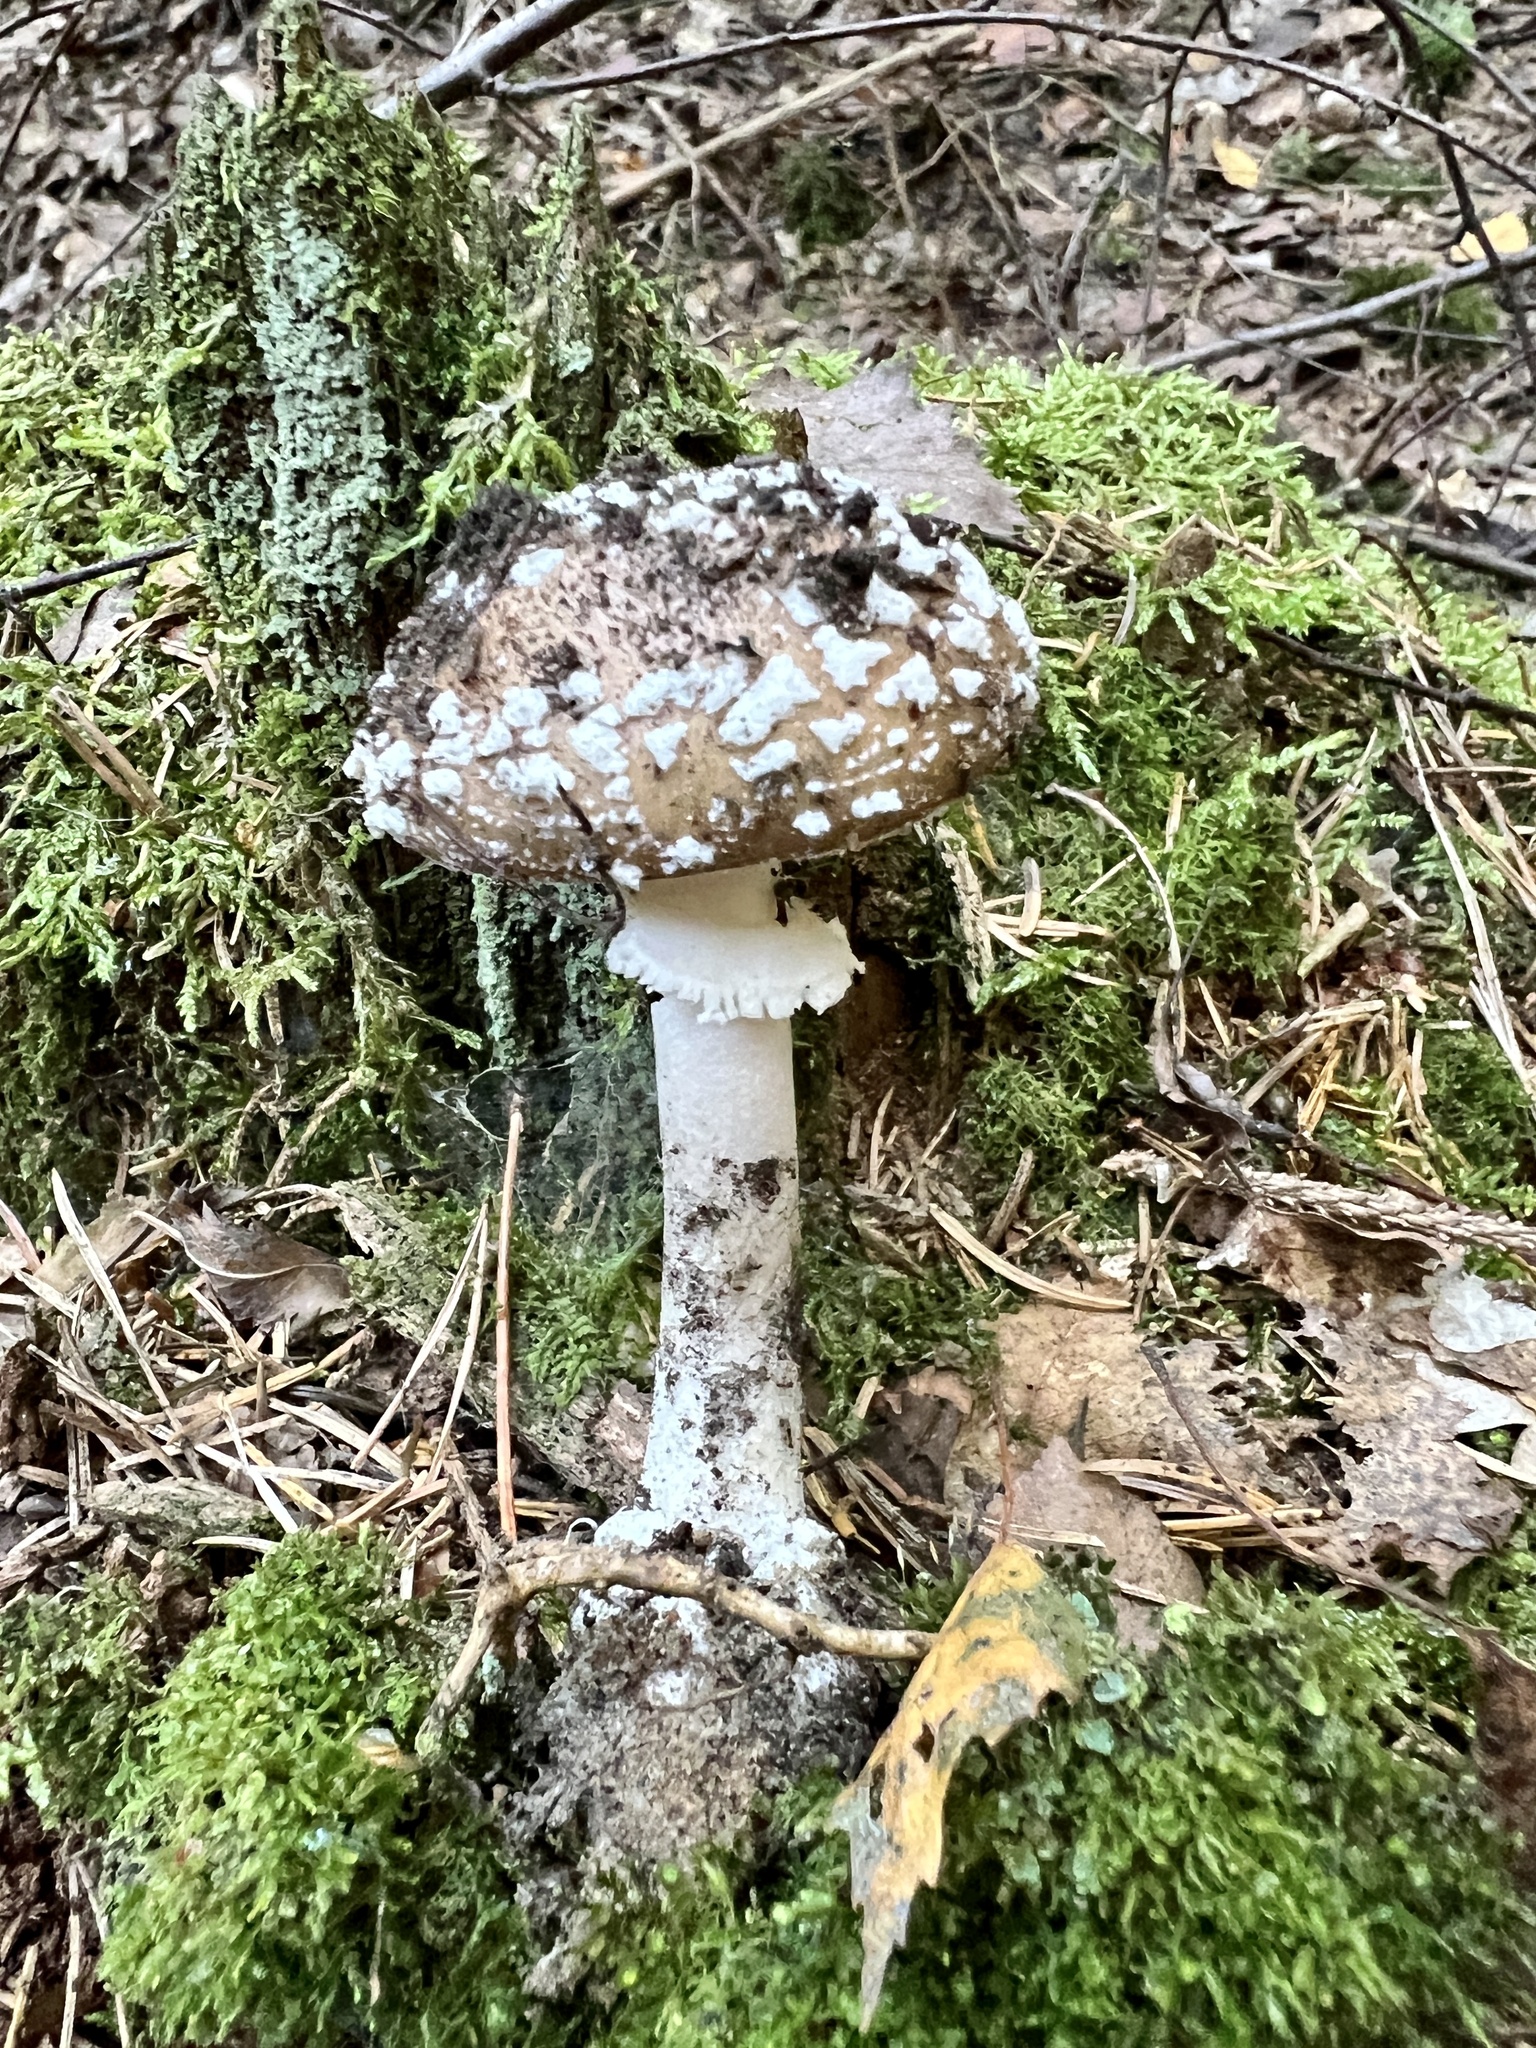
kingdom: Fungi
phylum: Basidiomycota
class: Agaricomycetes
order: Agaricales
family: Amanitaceae
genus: Amanita
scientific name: Amanita pantherina
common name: Panthercap
